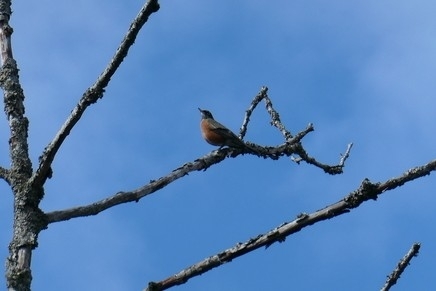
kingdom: Animalia
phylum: Chordata
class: Aves
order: Passeriformes
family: Turdidae
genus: Turdus
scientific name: Turdus migratorius
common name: American robin
